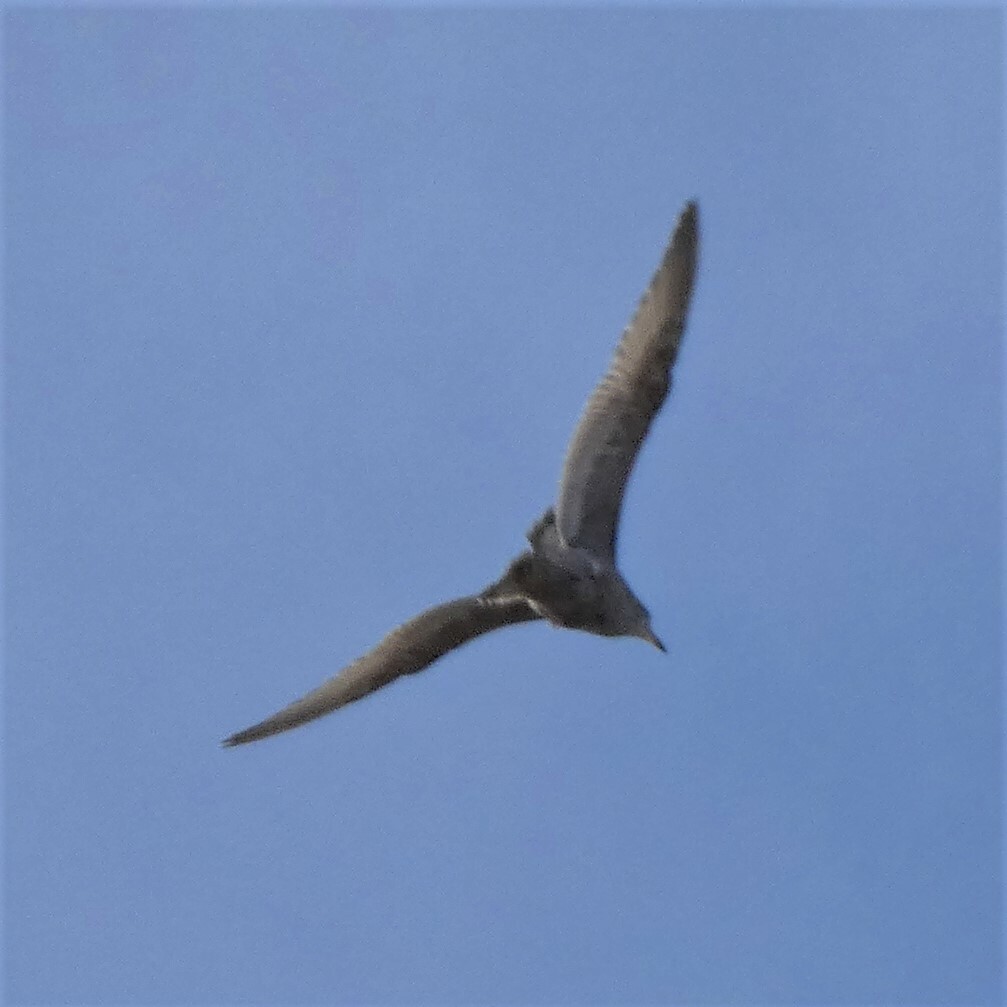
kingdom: Animalia
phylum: Chordata
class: Aves
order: Charadriiformes
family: Laridae
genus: Larus
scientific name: Larus delawarensis
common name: Ring-billed gull
